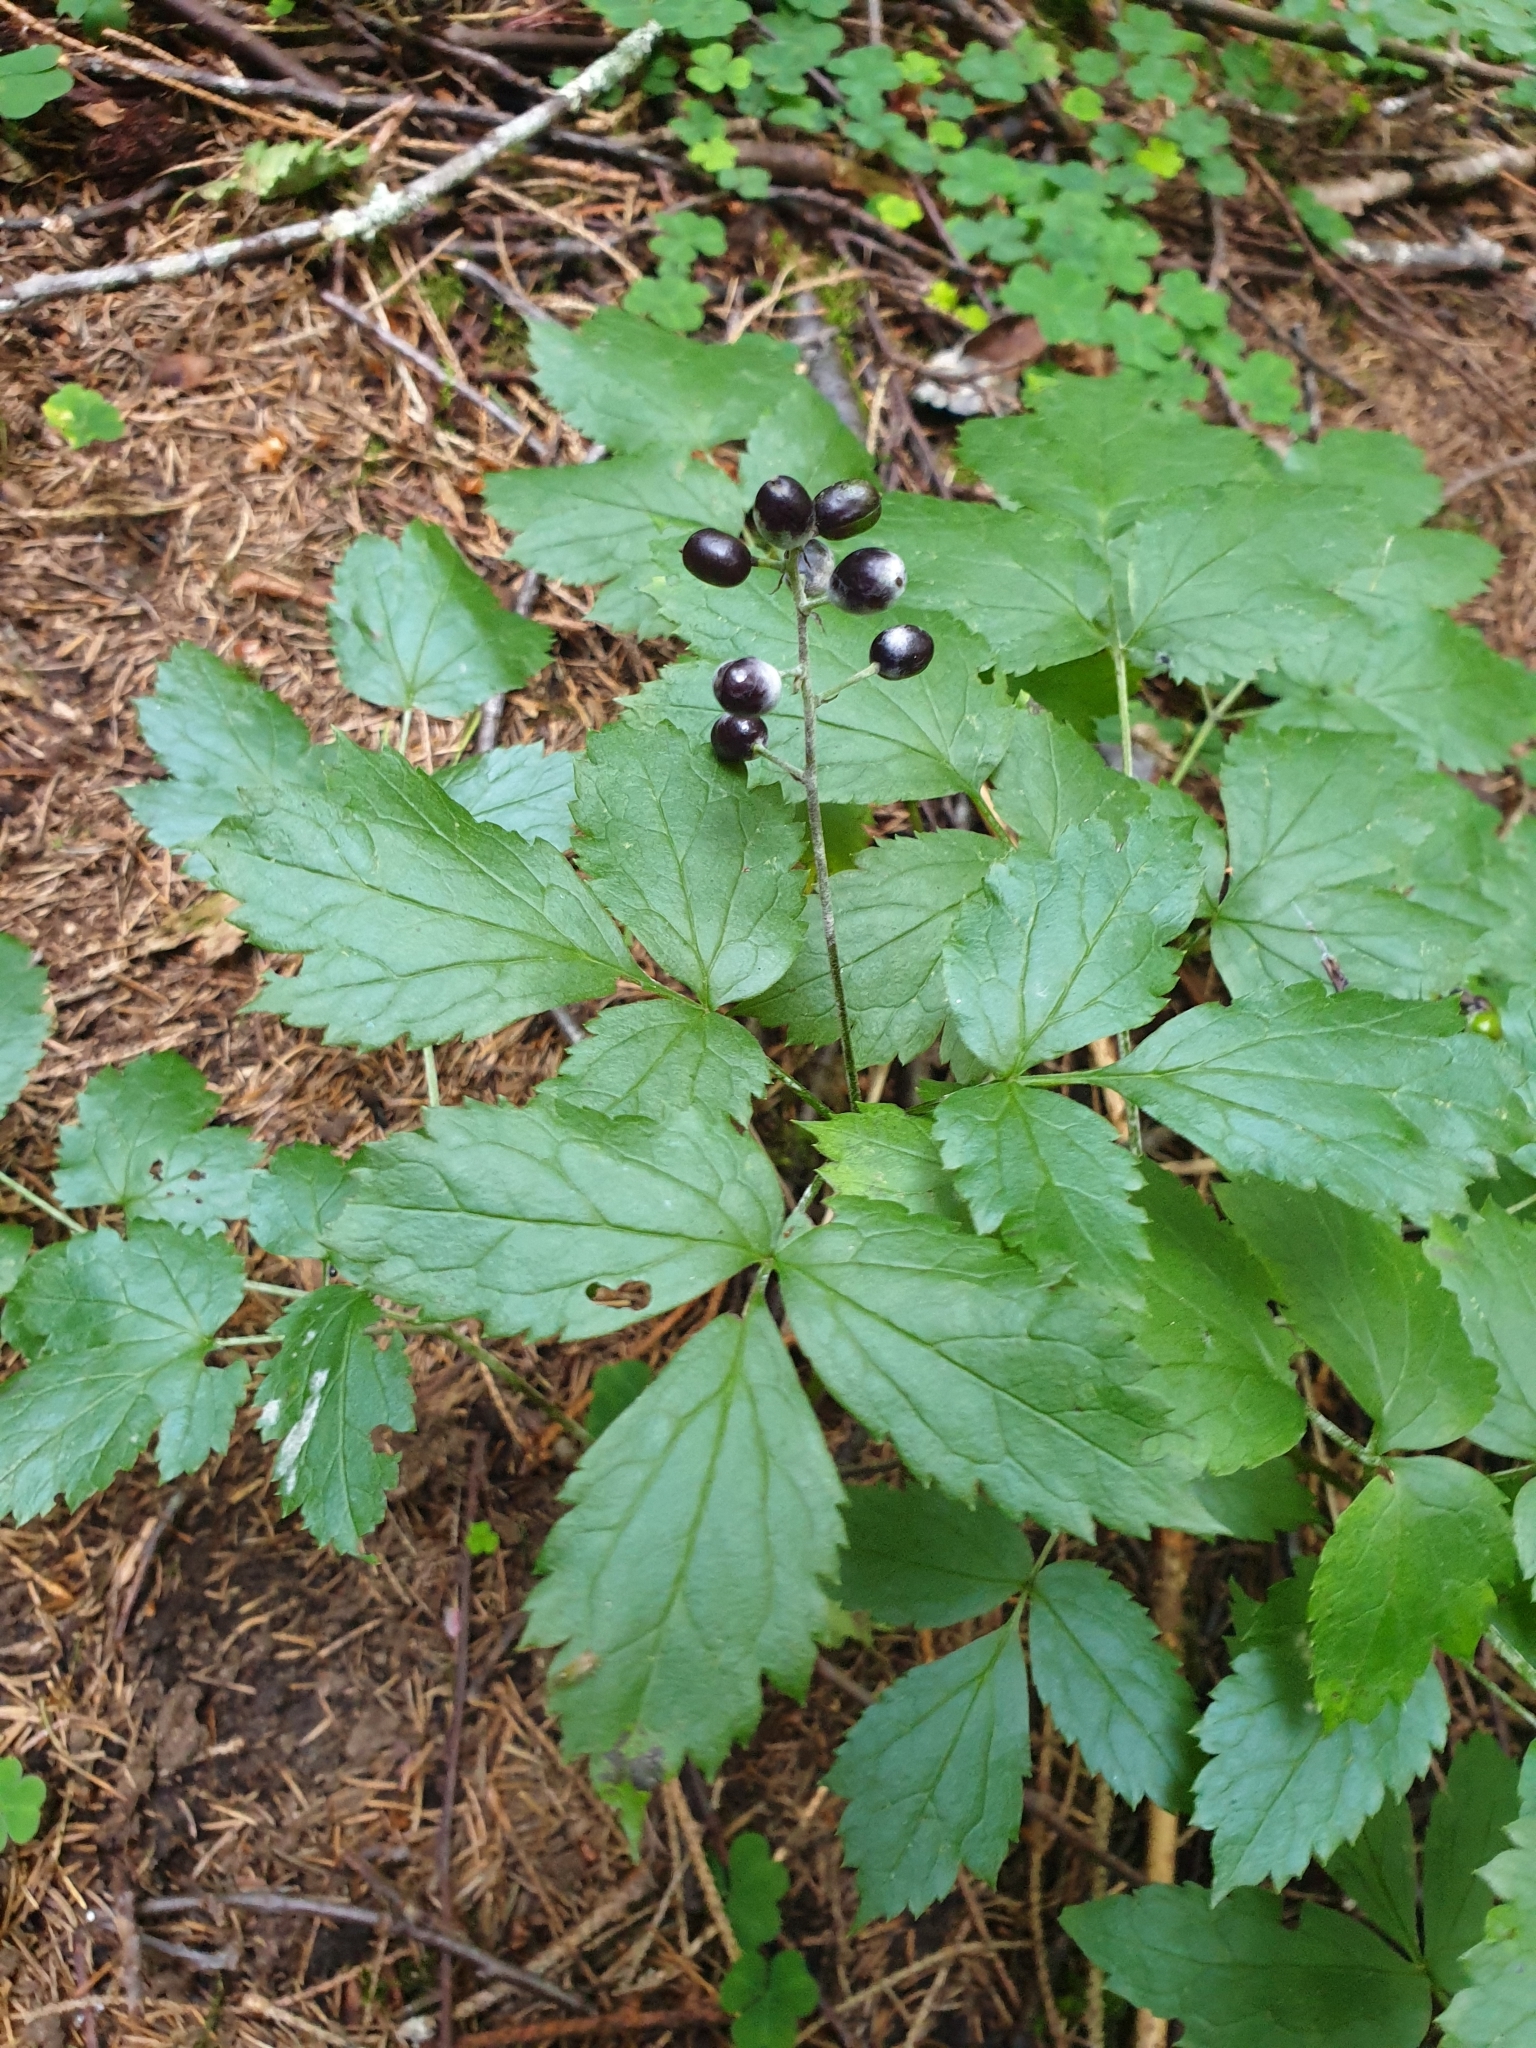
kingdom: Plantae
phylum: Tracheophyta
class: Magnoliopsida
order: Ranunculales
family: Ranunculaceae
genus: Actaea
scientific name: Actaea spicata
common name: Baneberry
